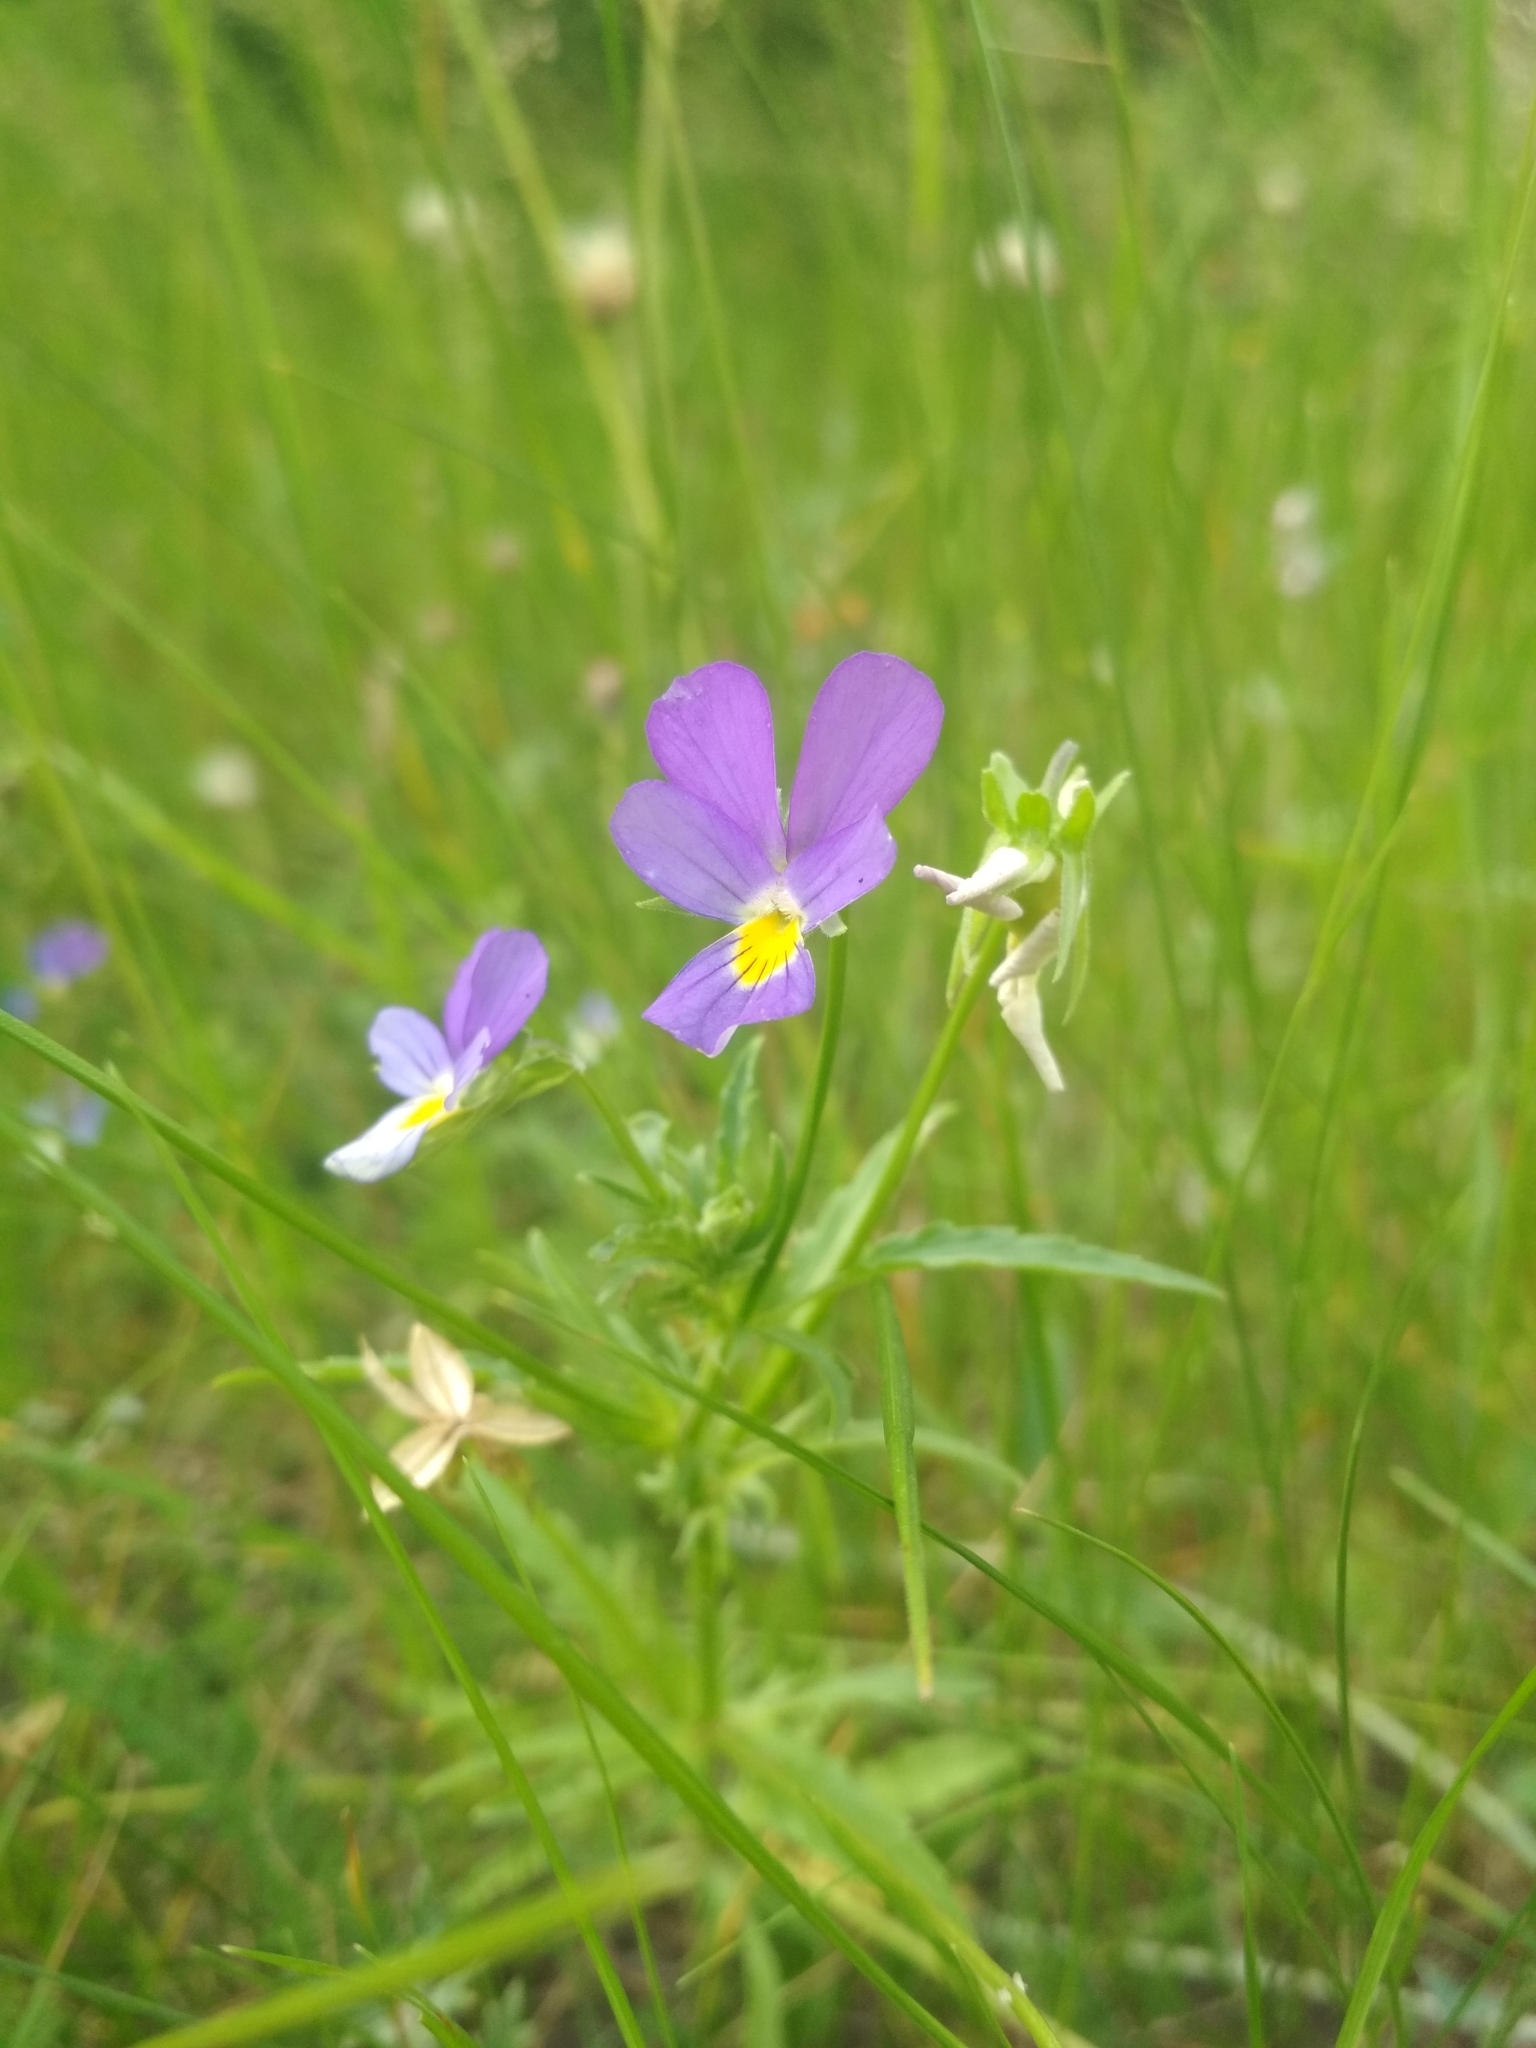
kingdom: Plantae
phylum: Tracheophyta
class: Magnoliopsida
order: Malpighiales
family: Violaceae
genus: Viola
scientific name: Viola tricolor
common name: Pansy
